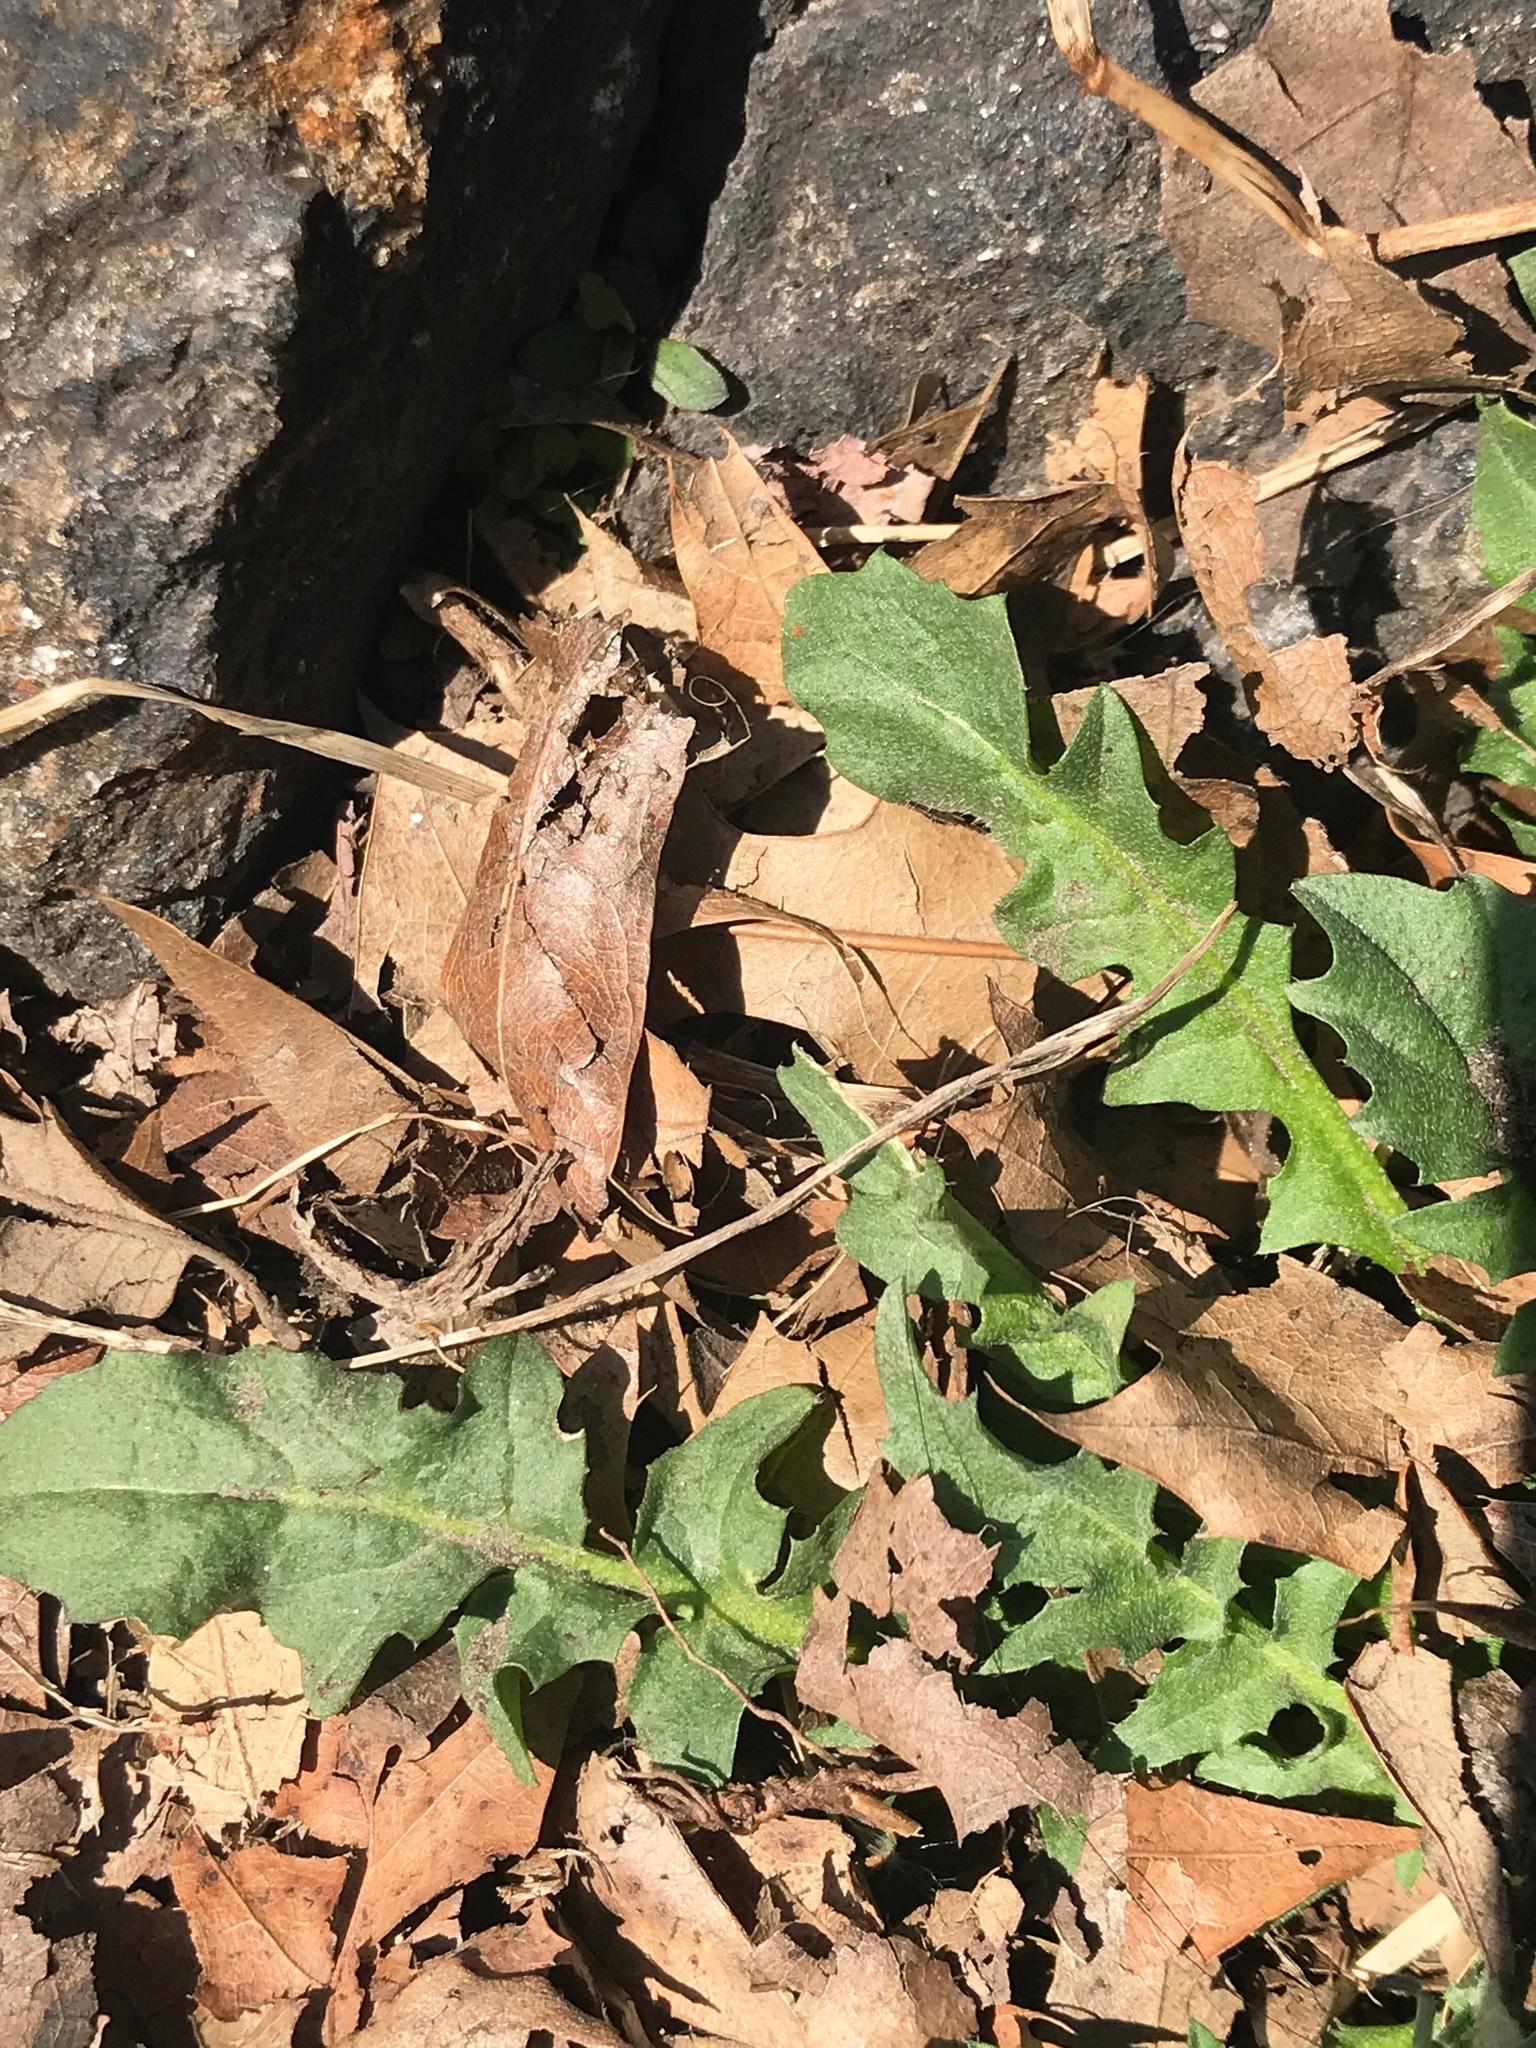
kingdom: Plantae
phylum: Tracheophyta
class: Magnoliopsida
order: Brassicales
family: Brassicaceae
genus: Capsella
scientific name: Capsella bursa-pastoris
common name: Shepherd's purse
